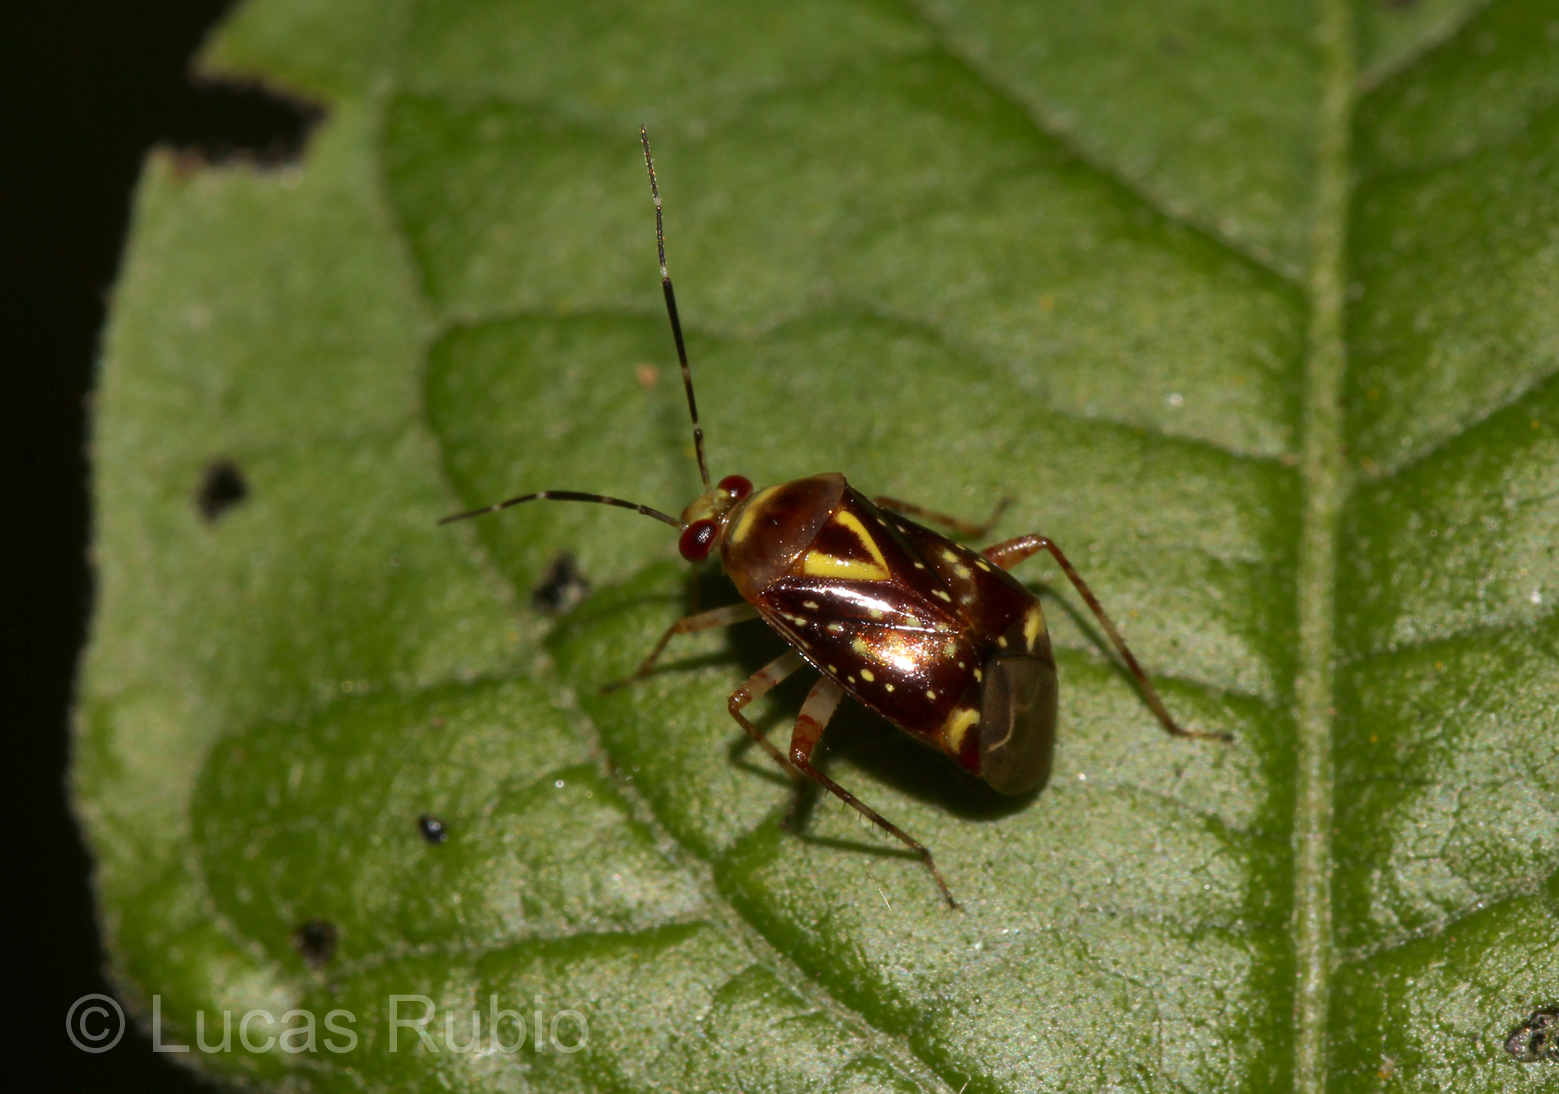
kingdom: Animalia
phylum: Arthropoda
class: Insecta
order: Hemiptera
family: Miridae
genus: Horciasoides
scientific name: Horciasoides nobilellus
